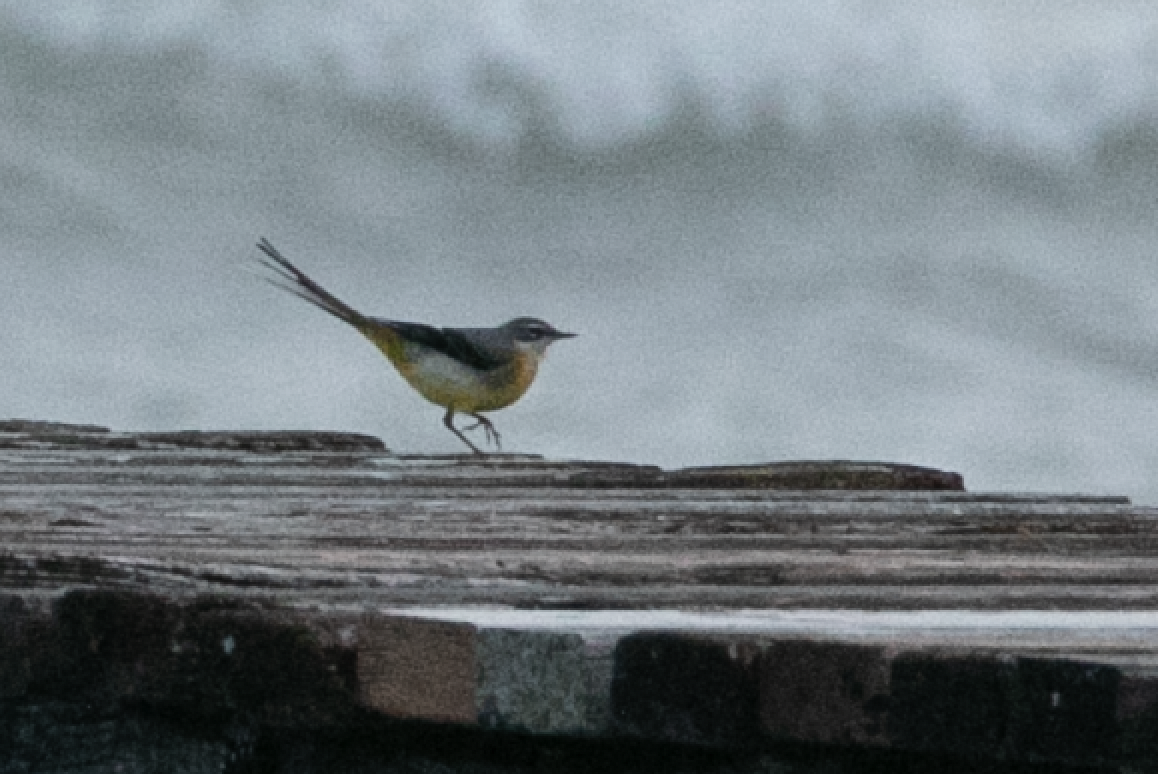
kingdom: Animalia
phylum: Chordata
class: Aves
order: Passeriformes
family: Motacillidae
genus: Motacilla
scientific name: Motacilla cinerea
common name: Grey wagtail
